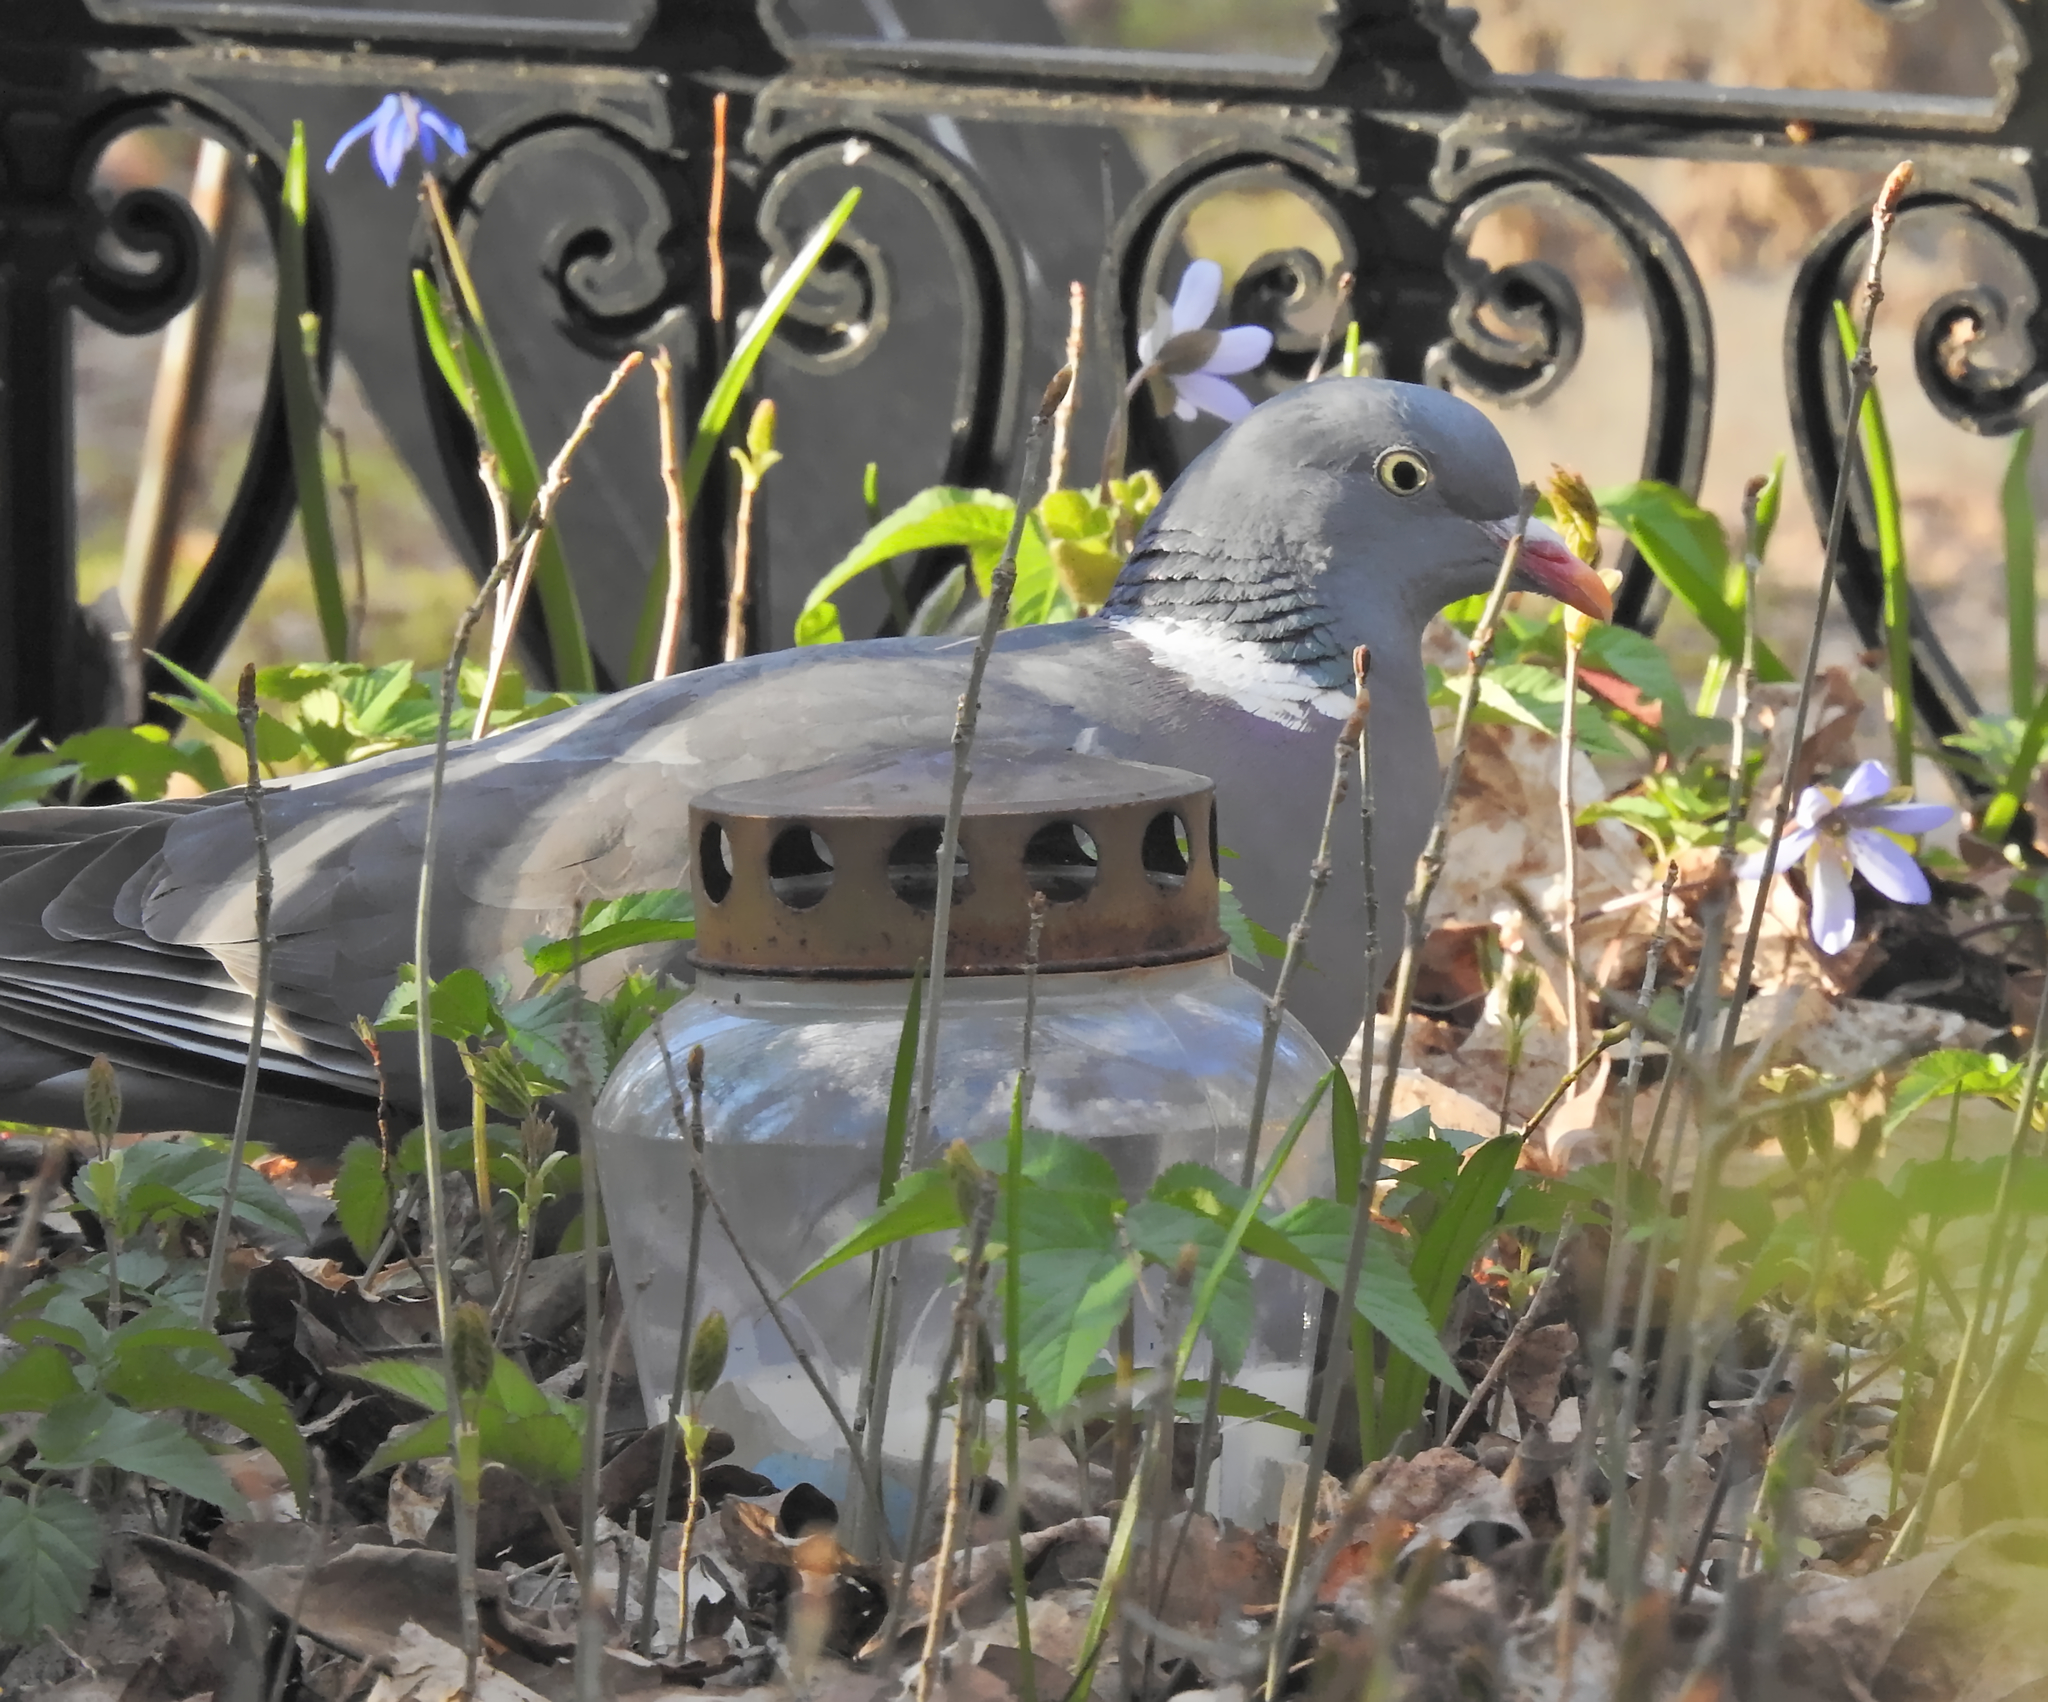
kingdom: Animalia
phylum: Chordata
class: Aves
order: Columbiformes
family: Columbidae
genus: Columba
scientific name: Columba palumbus
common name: Common wood pigeon
